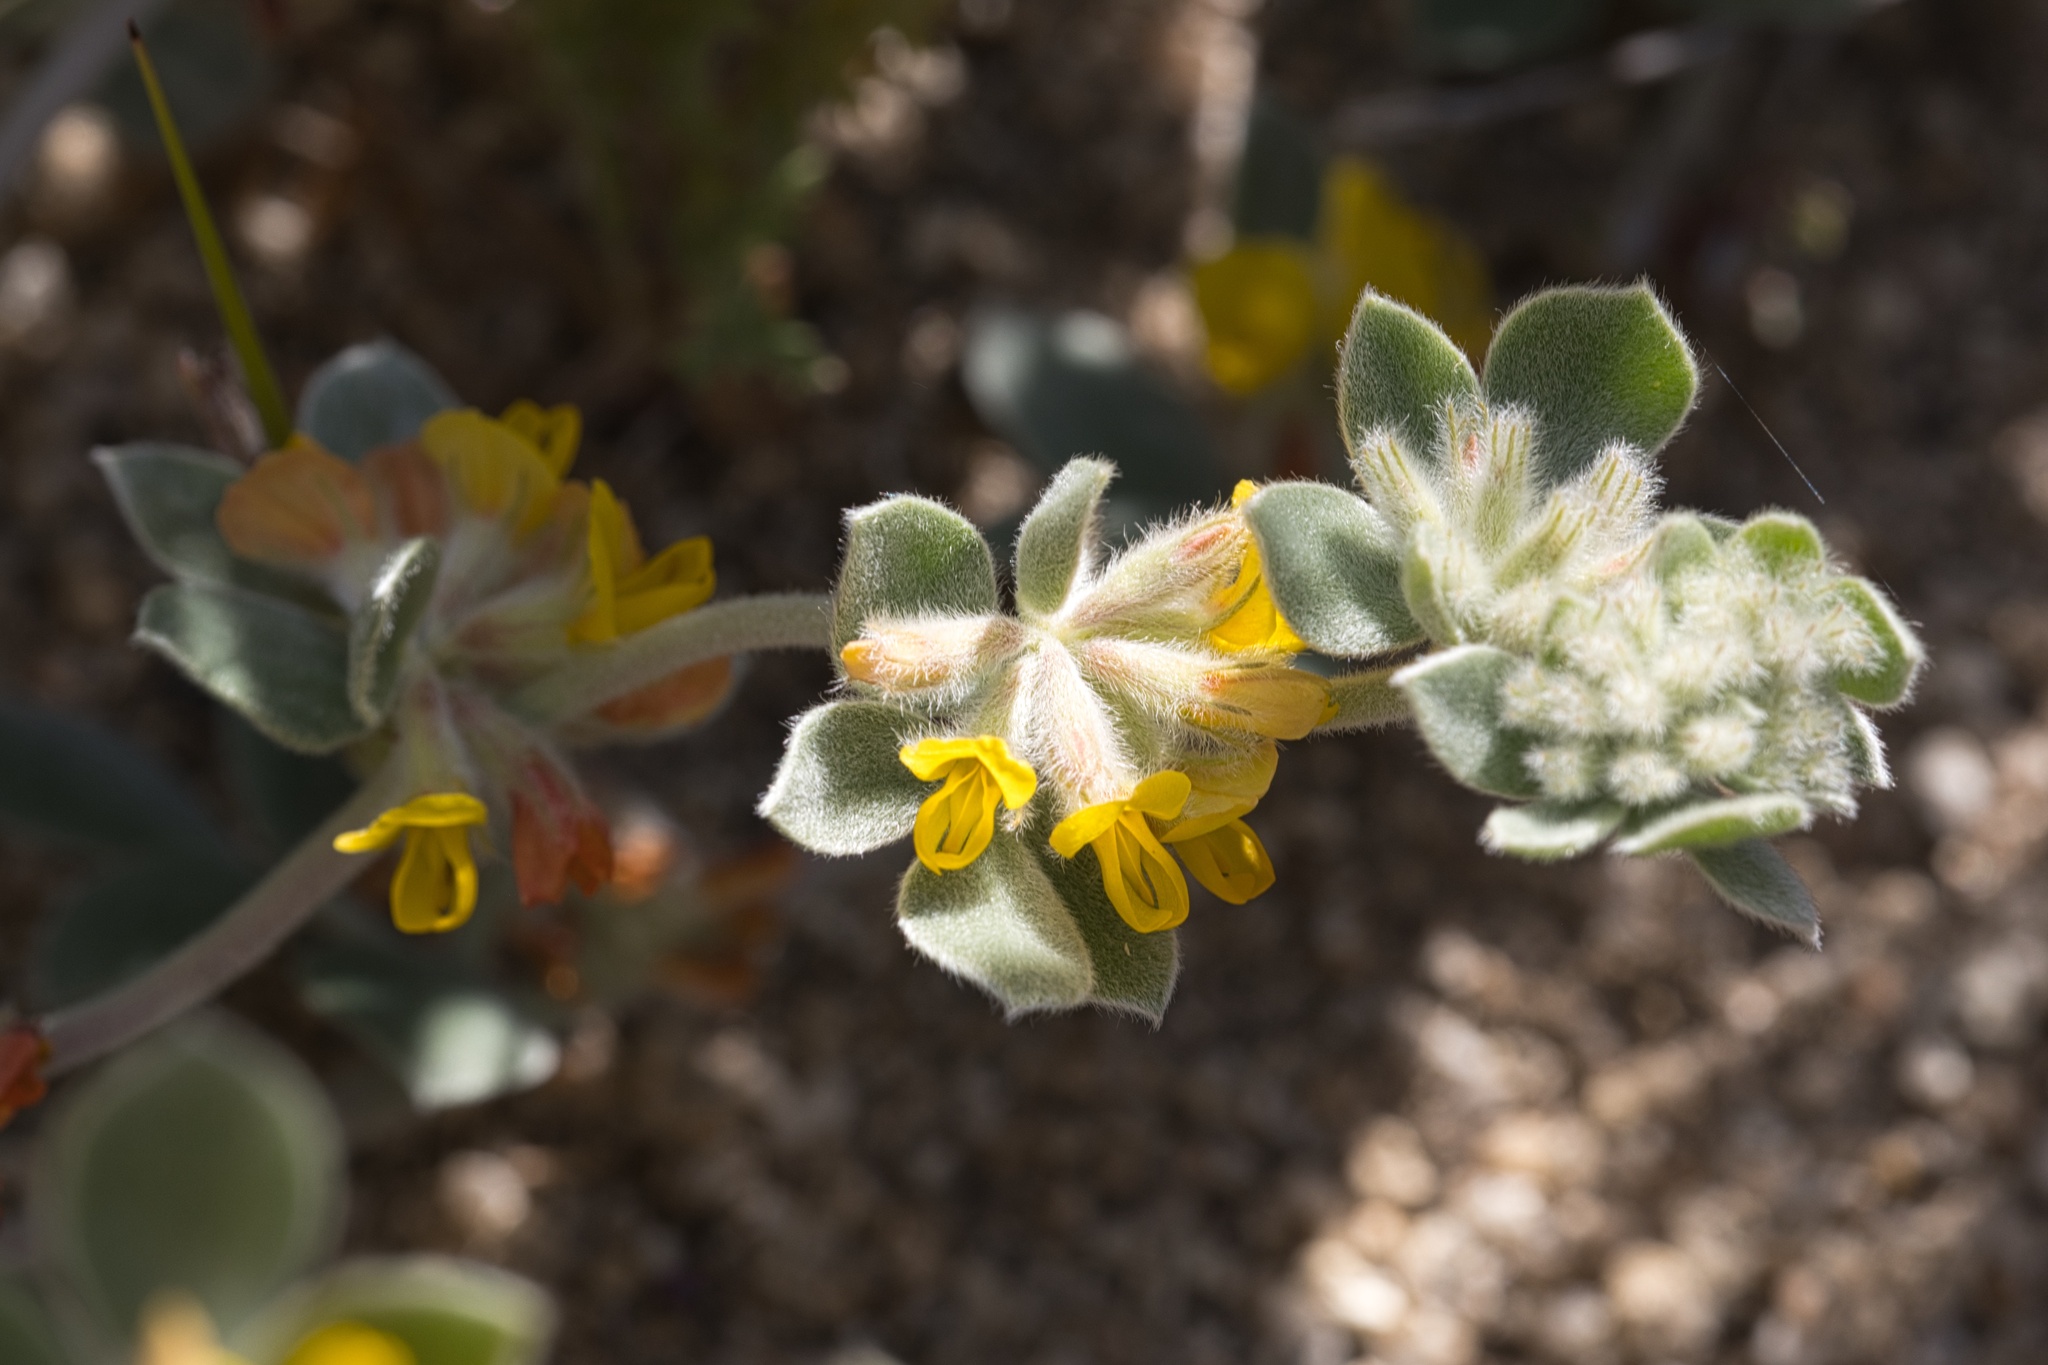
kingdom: Plantae
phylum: Tracheophyta
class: Magnoliopsida
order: Fabales
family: Fabaceae
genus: Acmispon
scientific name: Acmispon argophyllus
